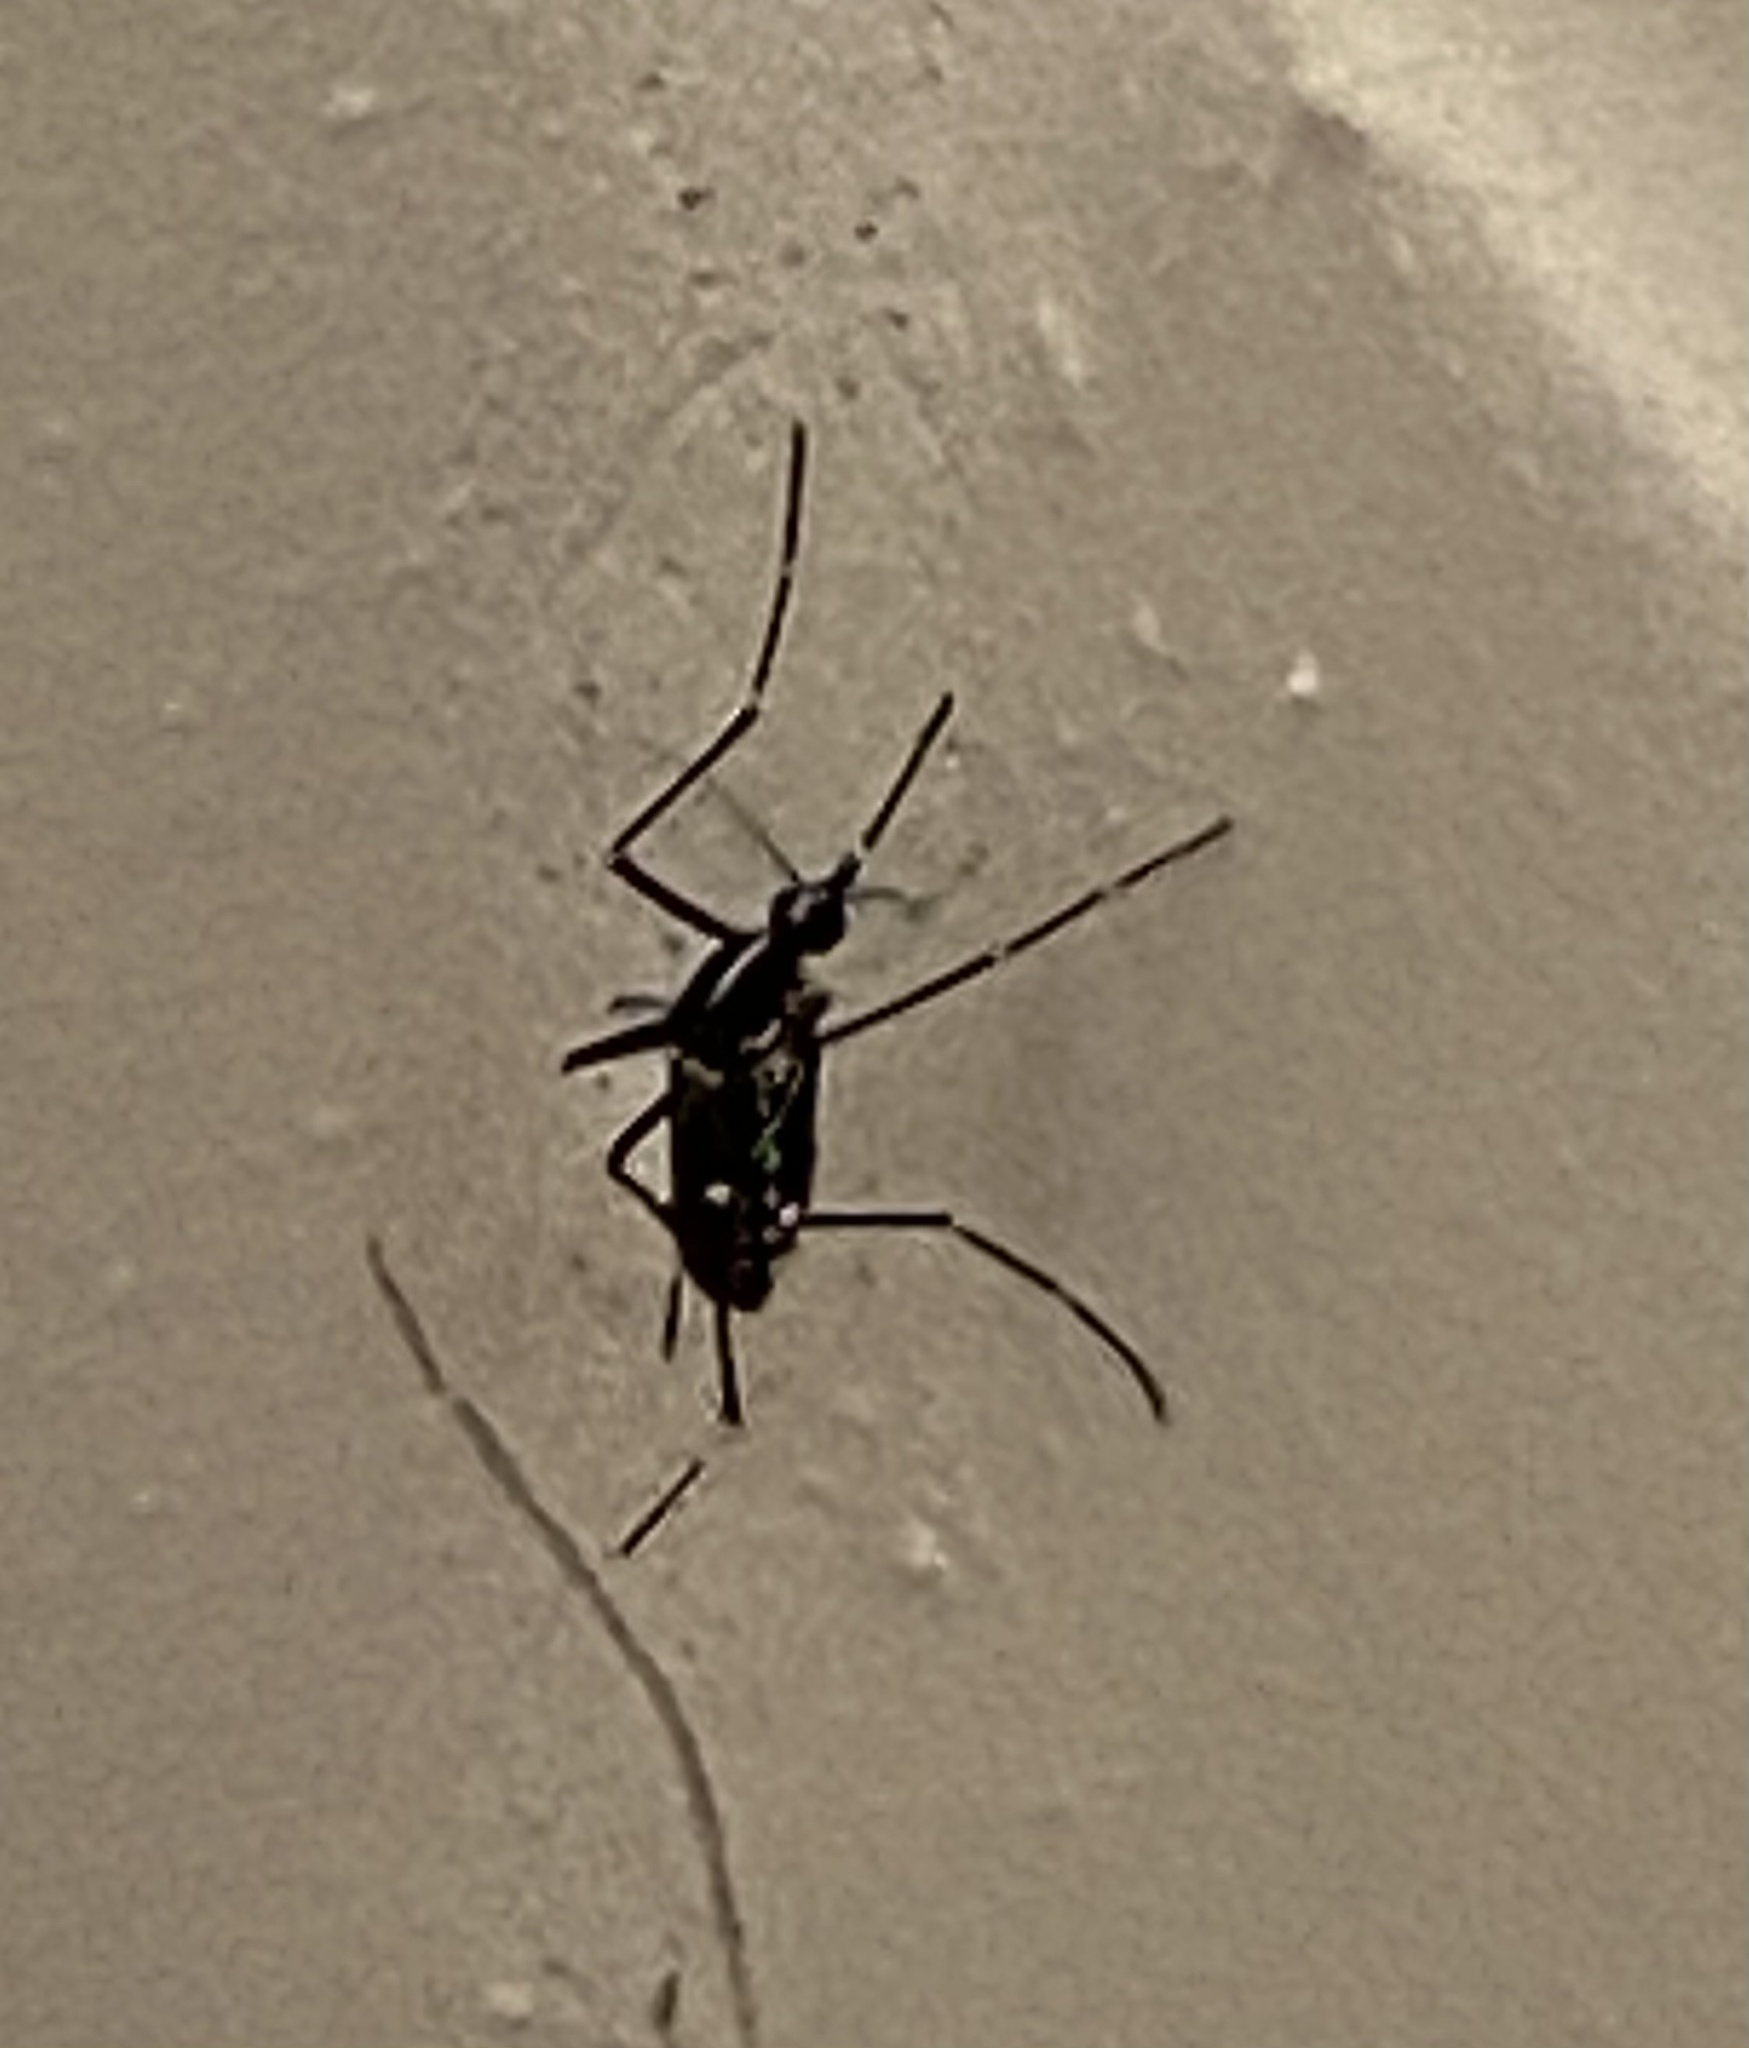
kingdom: Animalia
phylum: Arthropoda
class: Insecta
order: Diptera
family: Culicidae
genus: Aedes
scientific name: Aedes albopictus
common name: Tiger mosquito
